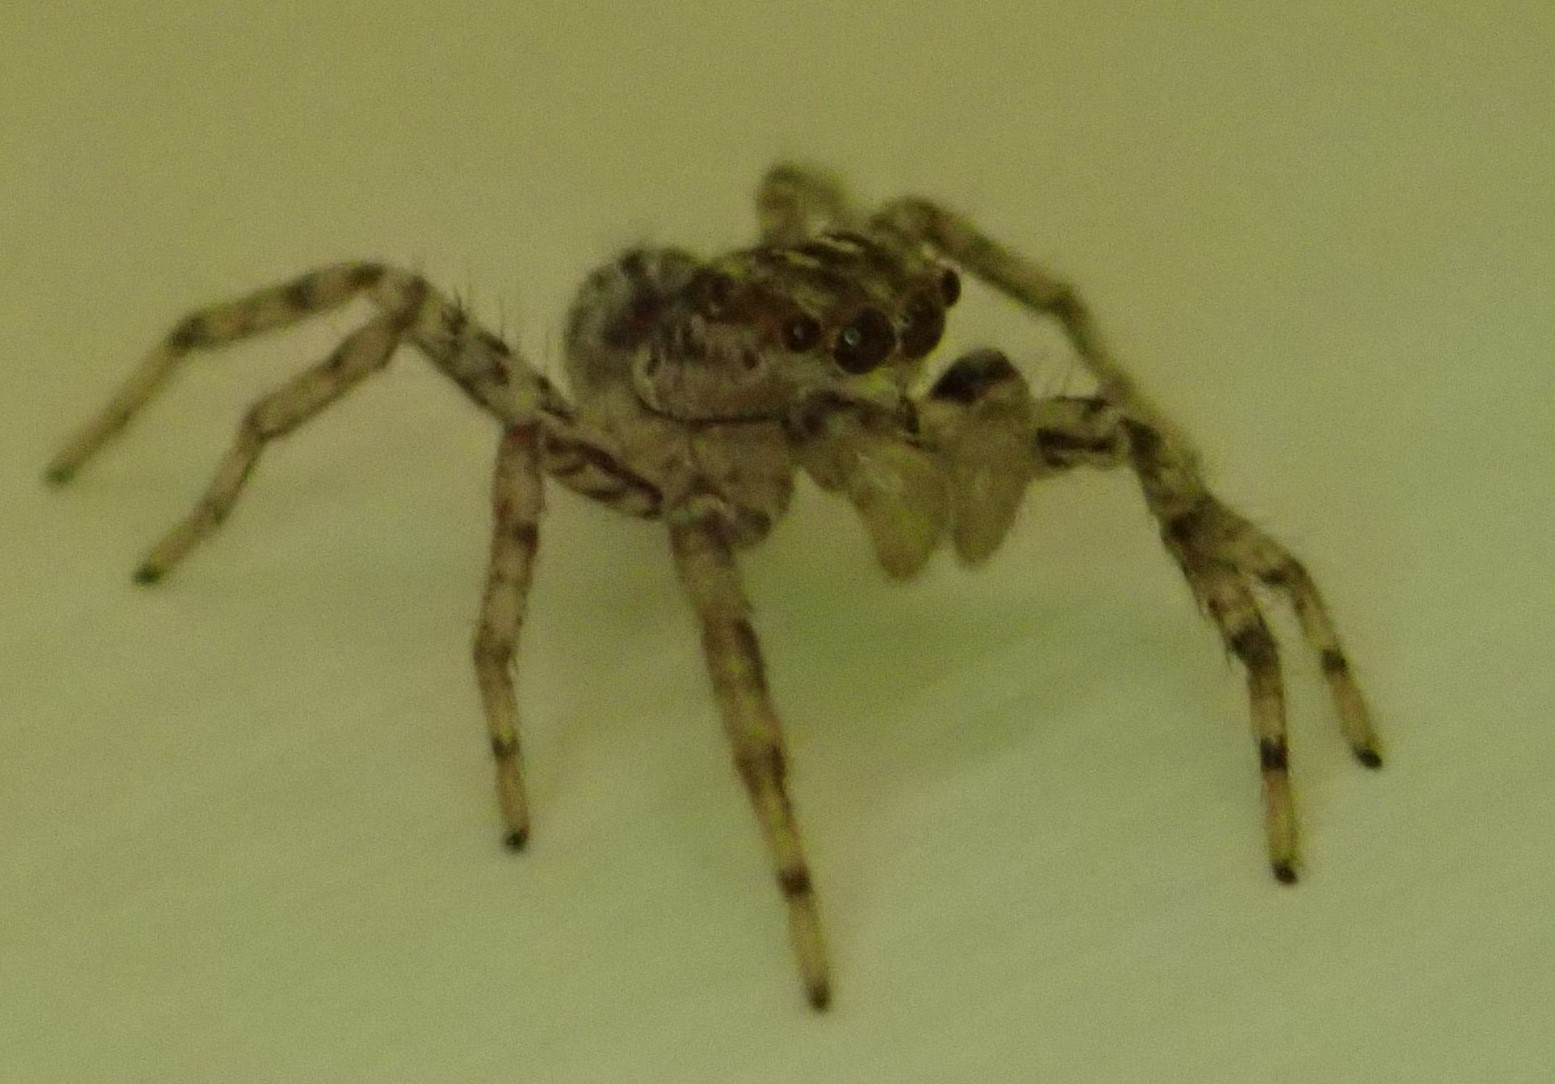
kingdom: Animalia
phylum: Arthropoda
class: Arachnida
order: Araneae
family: Salticidae
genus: Maevia
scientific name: Maevia inclemens
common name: Dimorphic jumper
